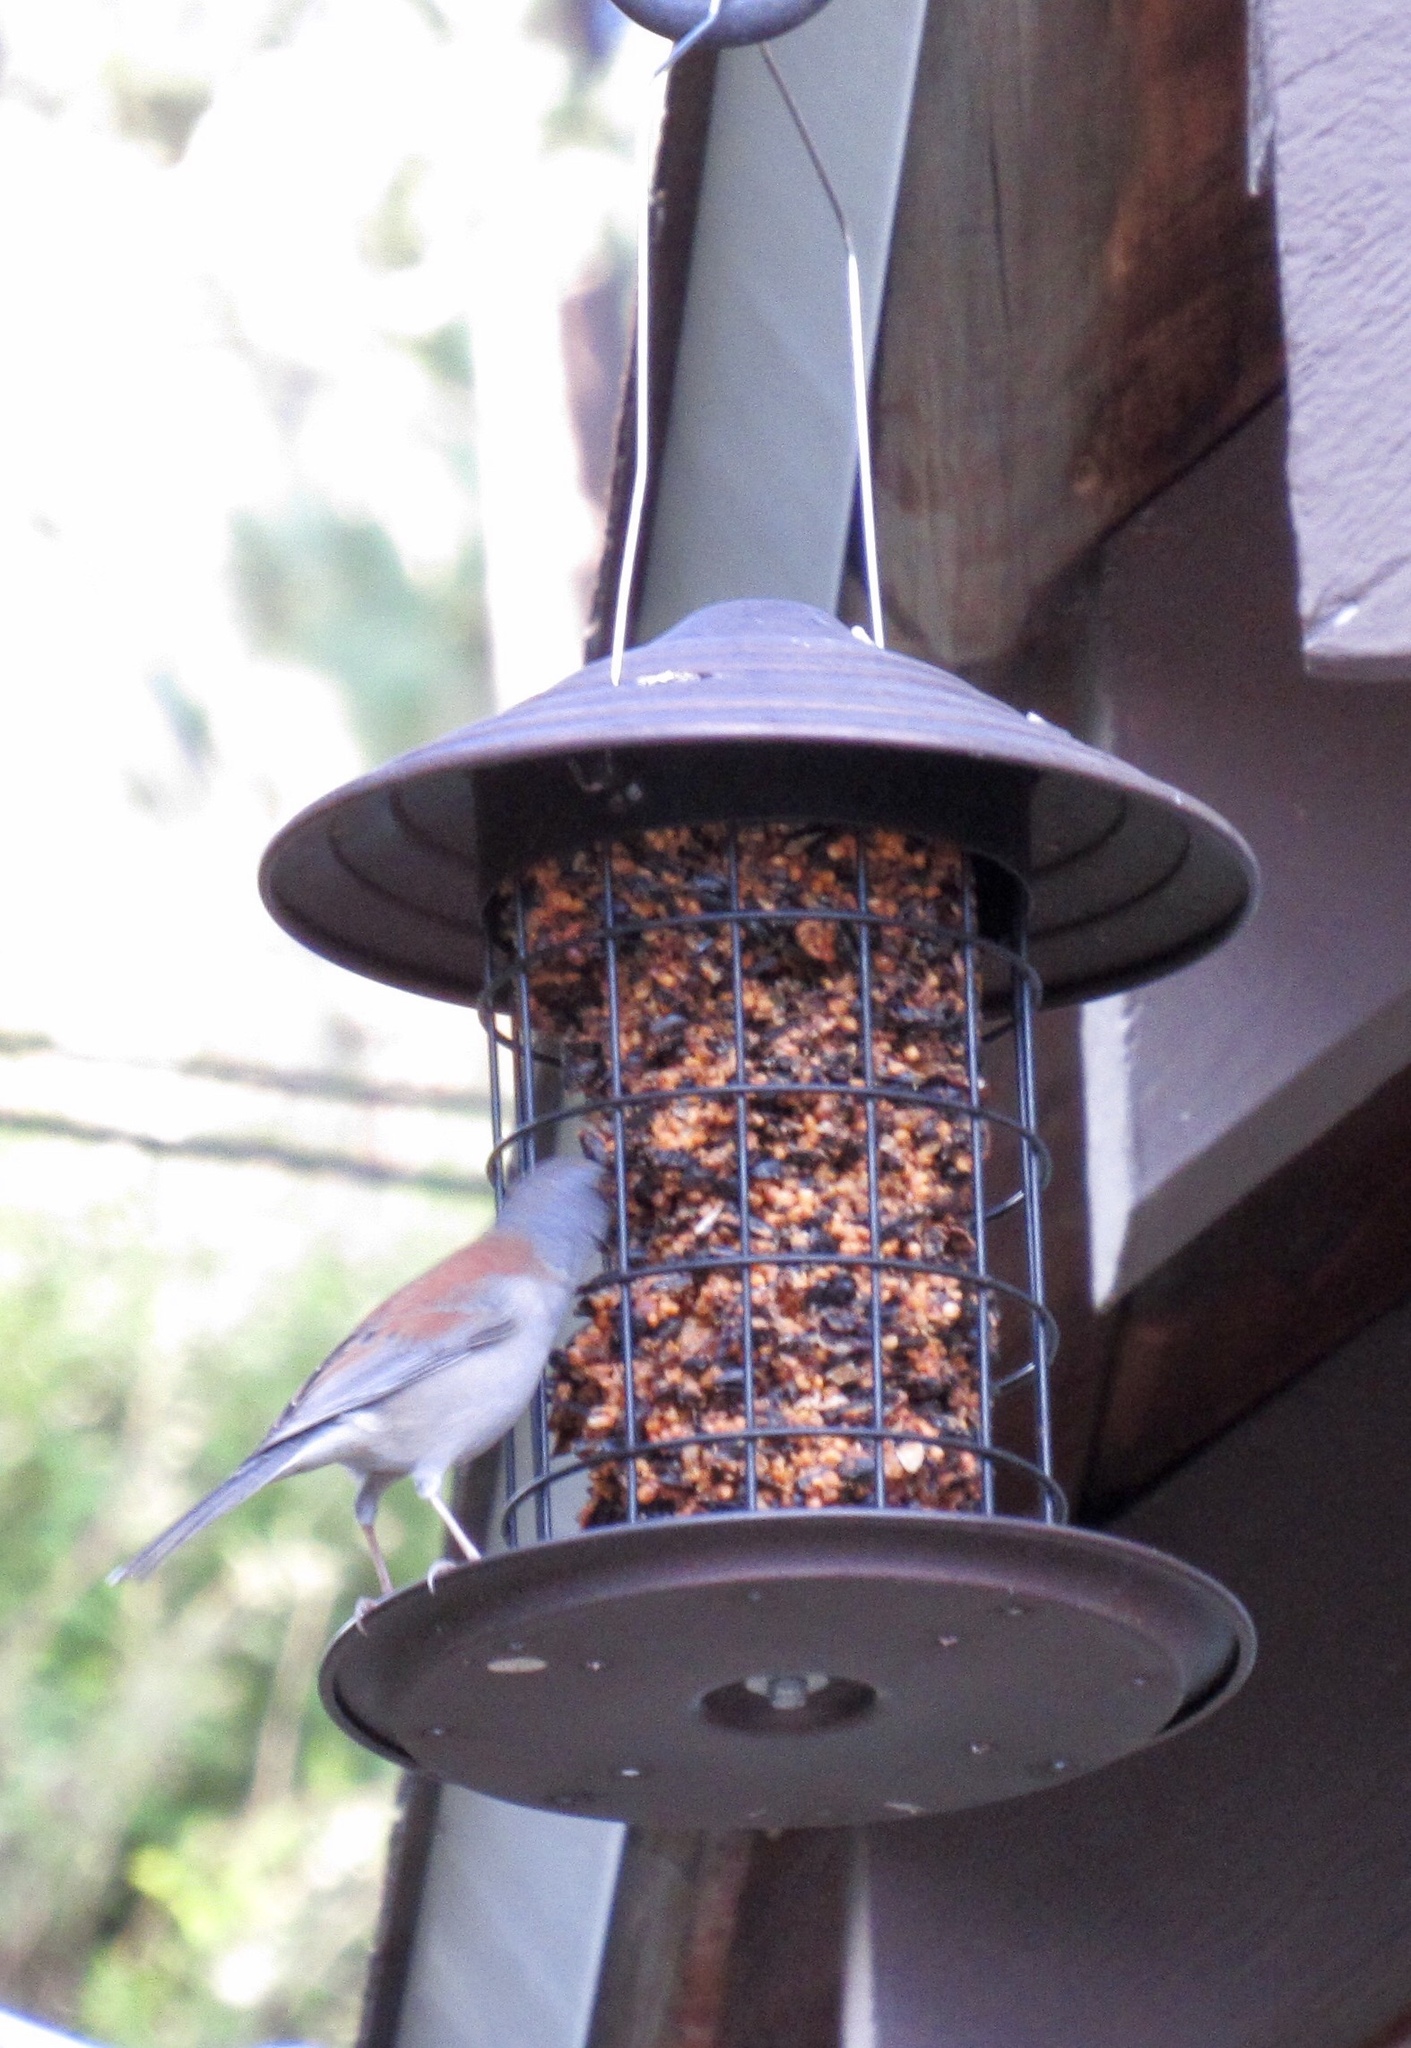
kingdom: Animalia
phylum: Chordata
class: Aves
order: Passeriformes
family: Passerellidae
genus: Junco
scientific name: Junco phaeonotus
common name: Yellow-eyed junco
